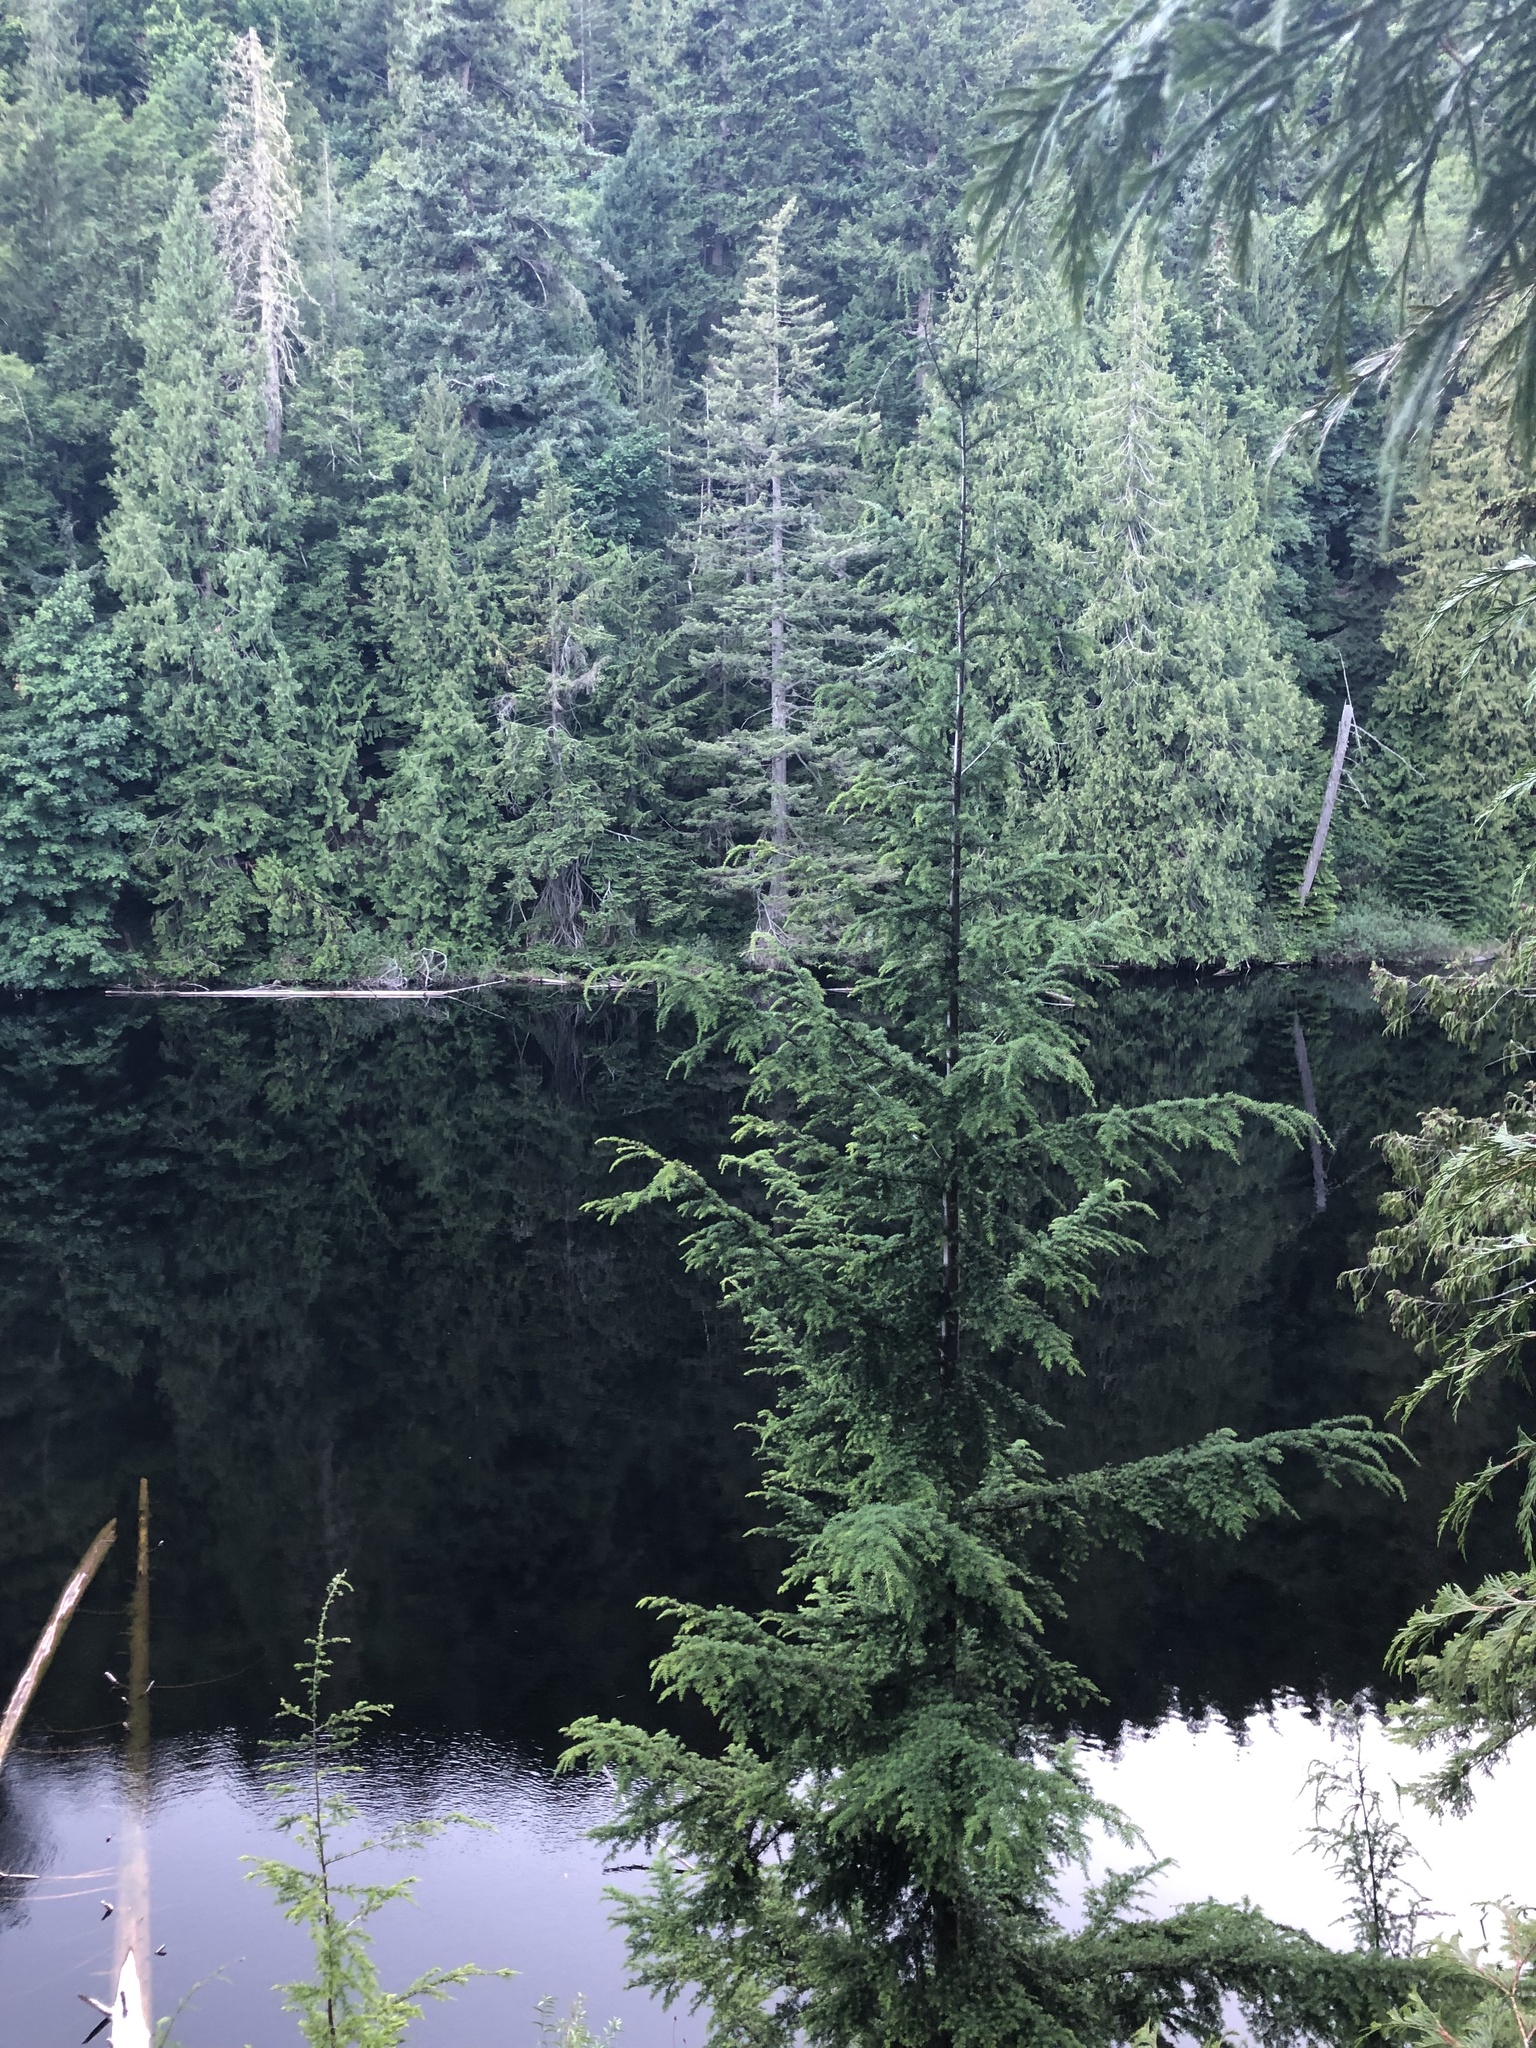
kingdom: Plantae
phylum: Tracheophyta
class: Pinopsida
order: Pinales
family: Pinaceae
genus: Tsuga
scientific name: Tsuga heterophylla
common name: Western hemlock
